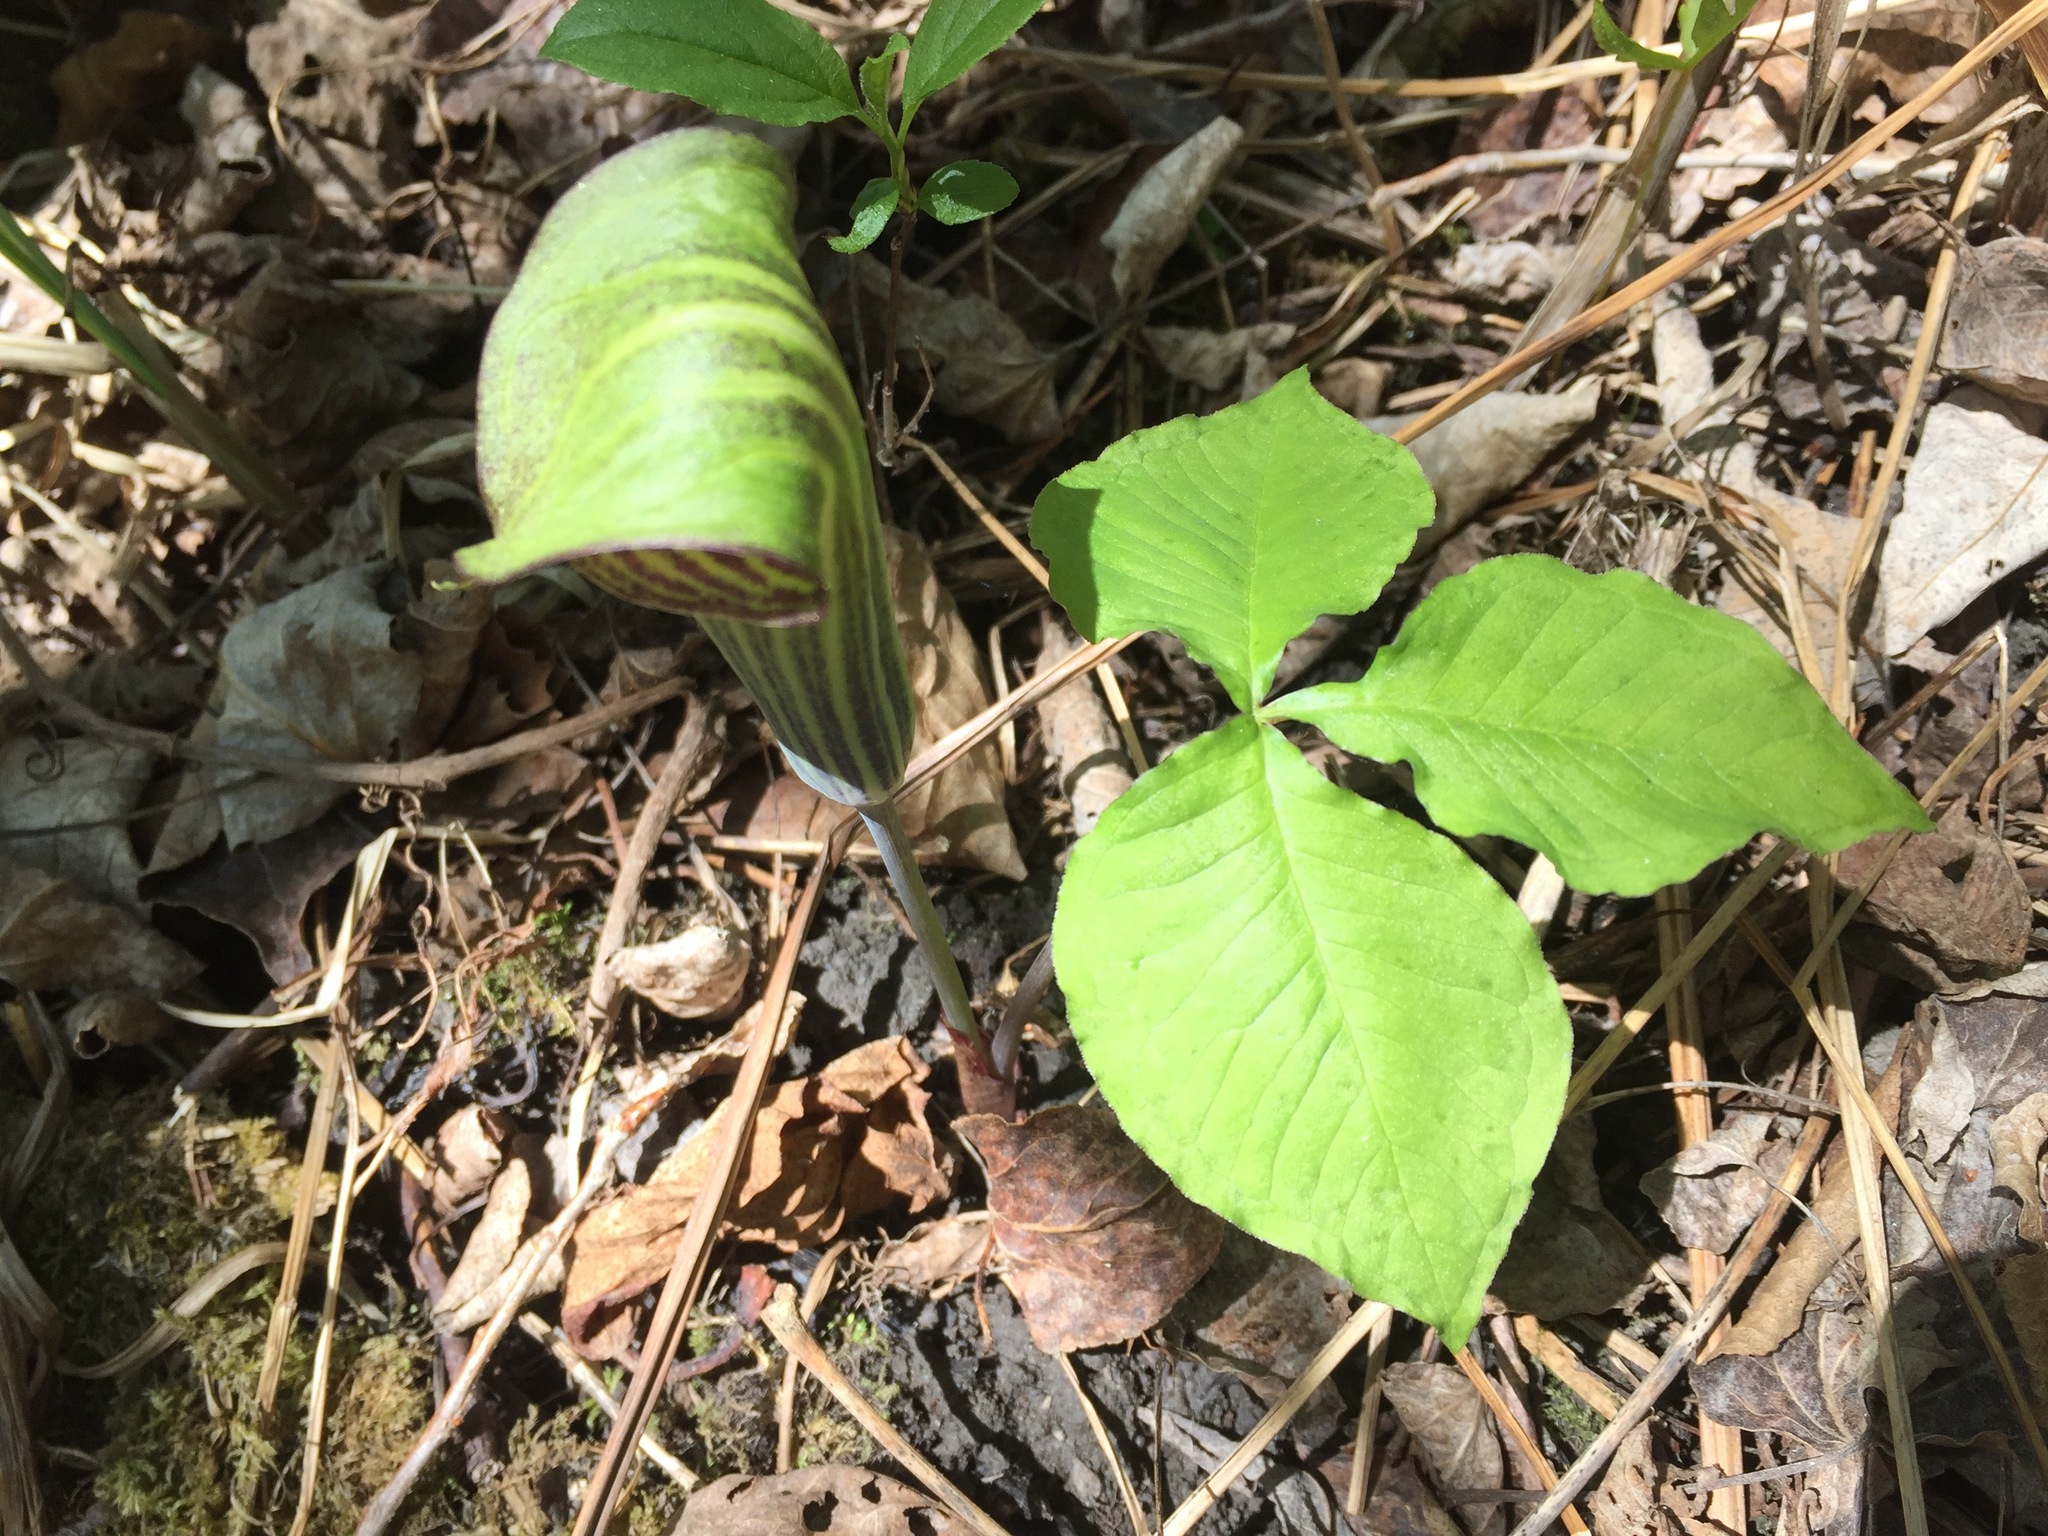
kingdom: Plantae
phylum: Tracheophyta
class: Liliopsida
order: Alismatales
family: Araceae
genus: Arisaema
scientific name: Arisaema triphyllum
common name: Jack-in-the-pulpit
